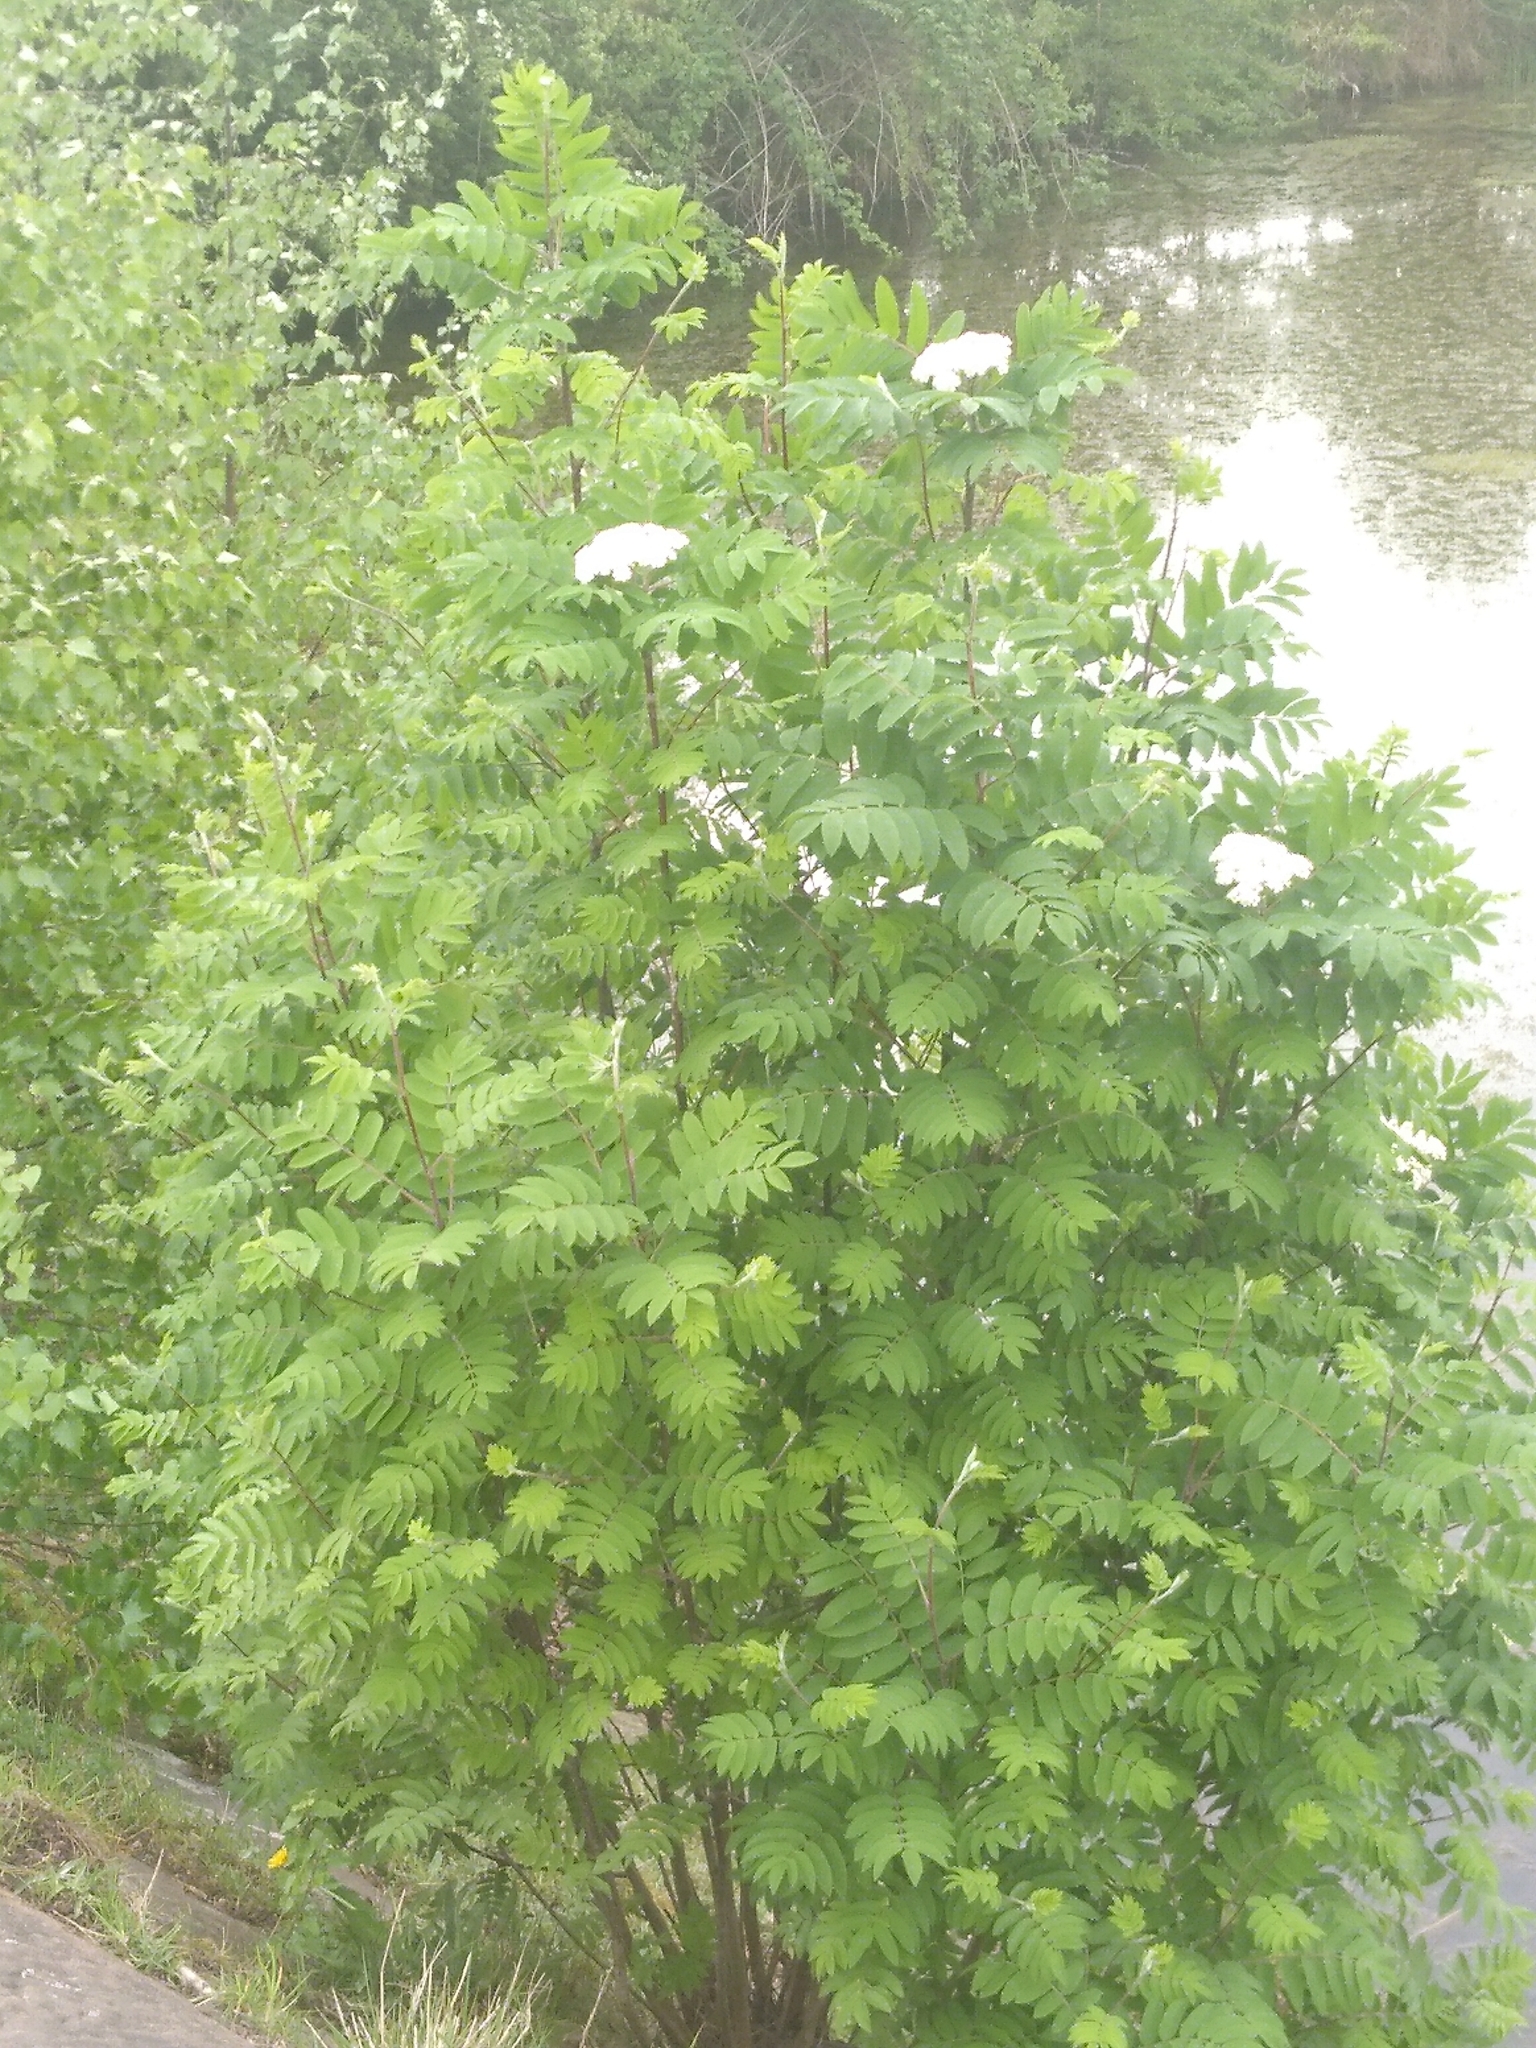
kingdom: Plantae
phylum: Tracheophyta
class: Magnoliopsida
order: Rosales
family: Rosaceae
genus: Sorbus
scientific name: Sorbus aucuparia
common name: Rowan
